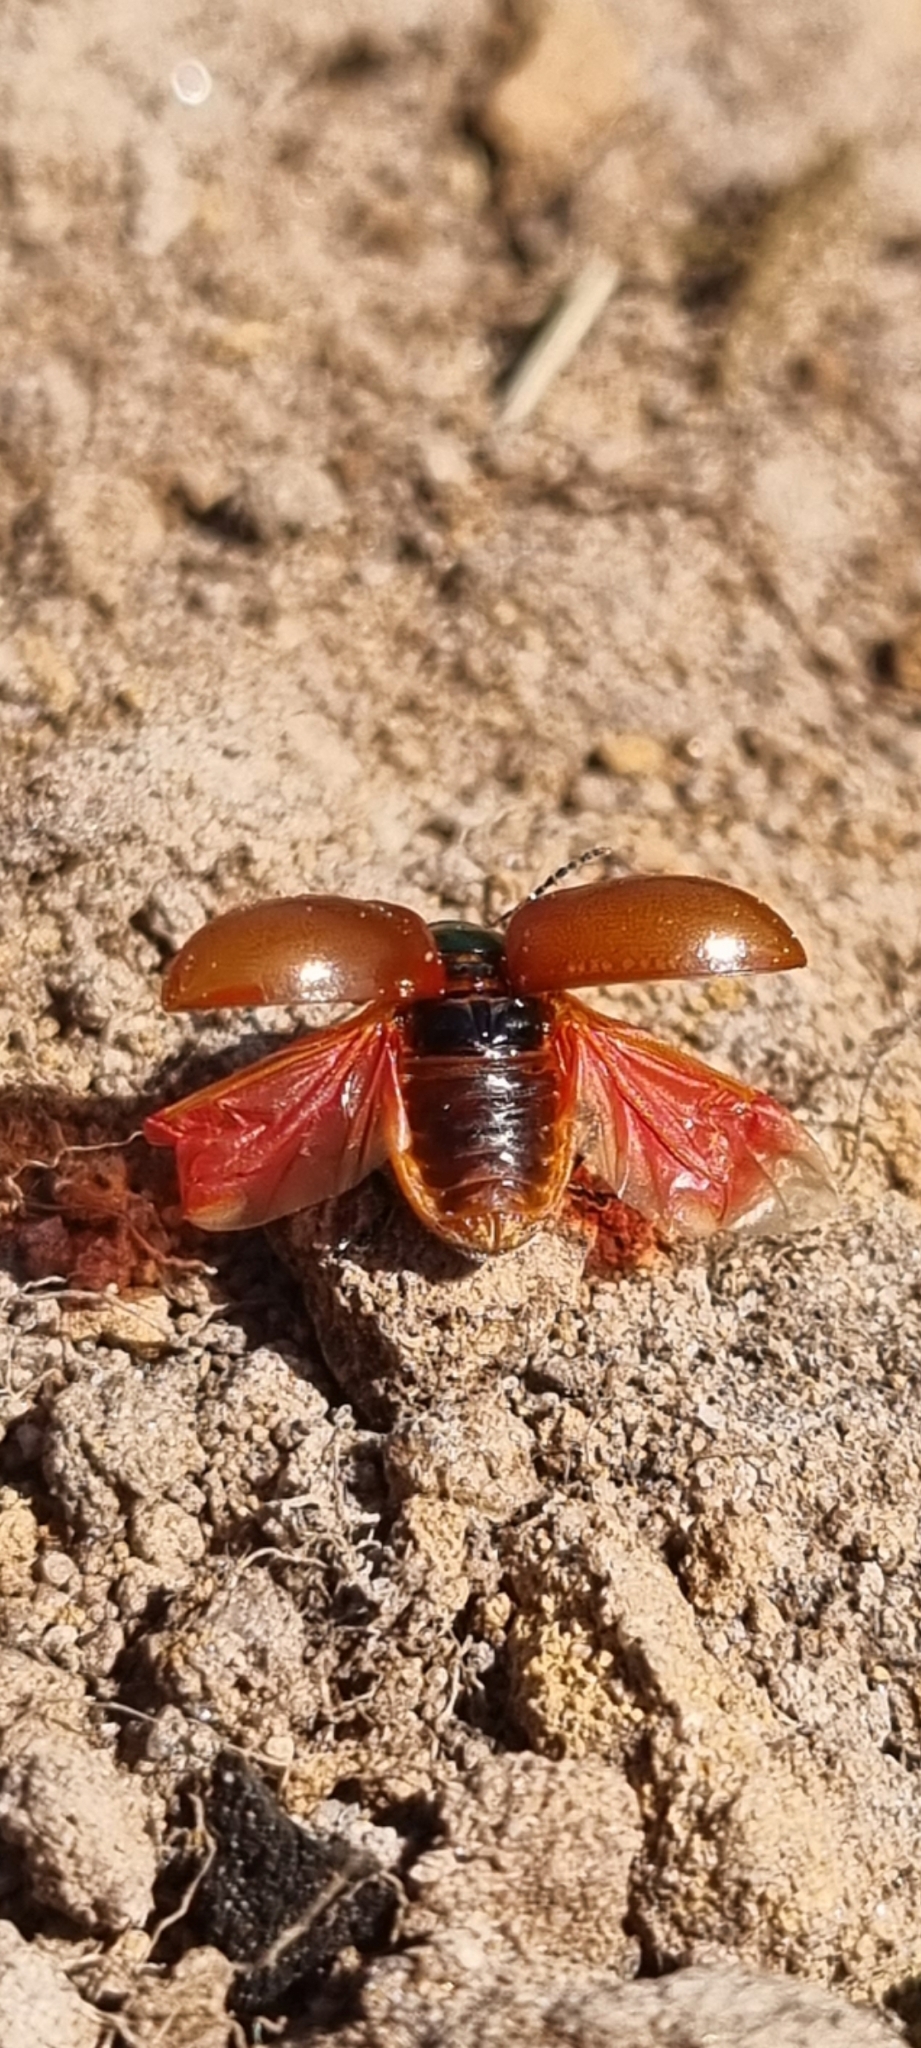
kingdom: Animalia
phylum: Arthropoda
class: Insecta
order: Coleoptera
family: Chrysomelidae
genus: Chrysomela
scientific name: Chrysomela polita
